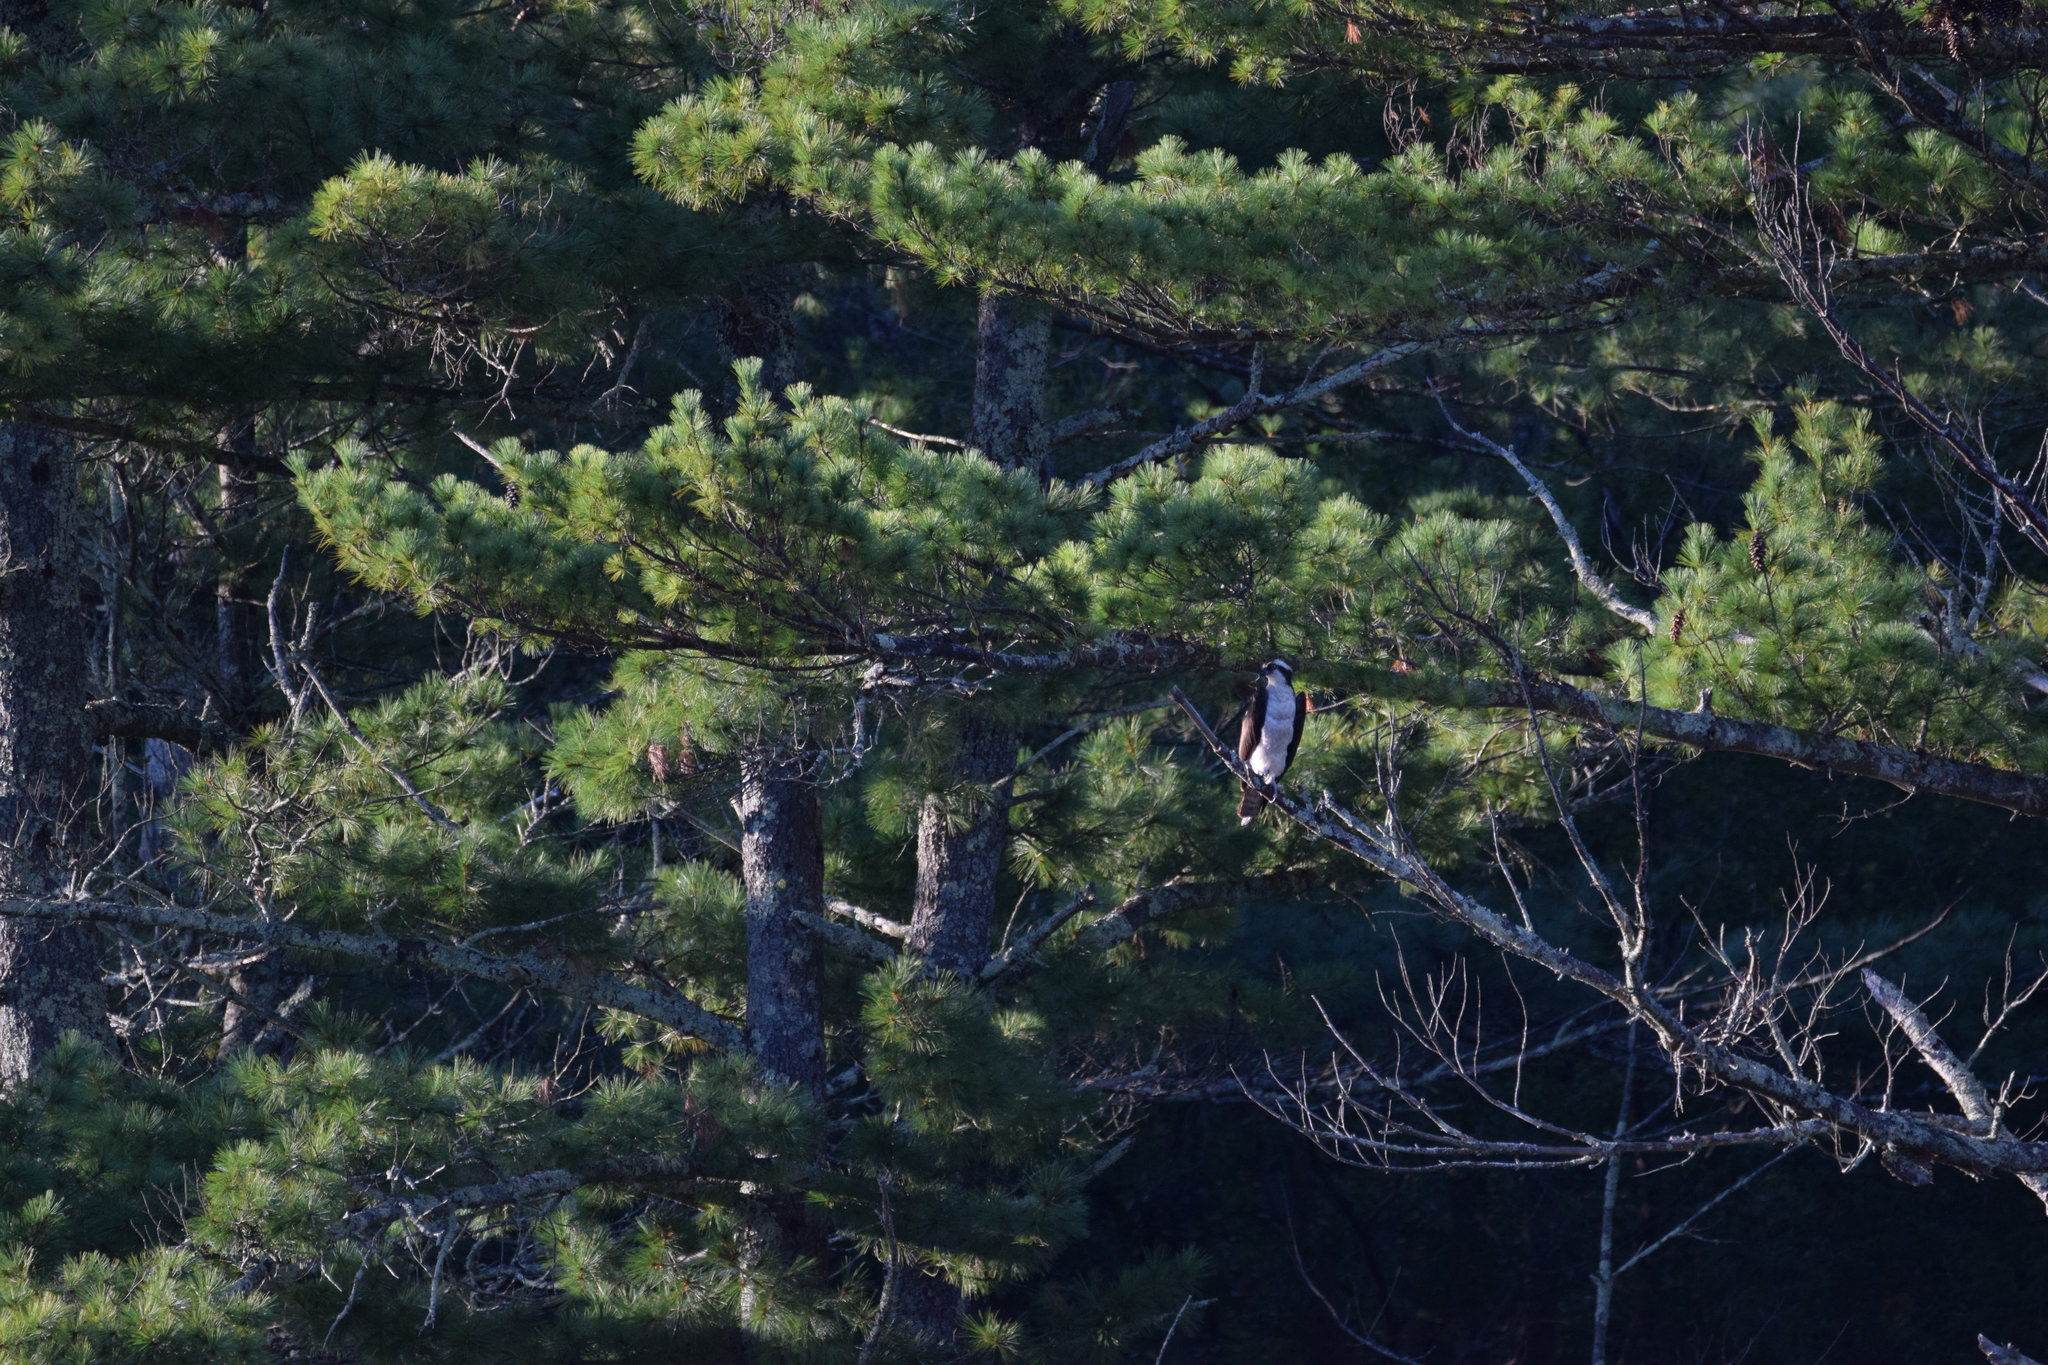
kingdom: Animalia
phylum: Chordata
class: Aves
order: Accipitriformes
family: Pandionidae
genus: Pandion
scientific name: Pandion haliaetus
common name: Osprey
